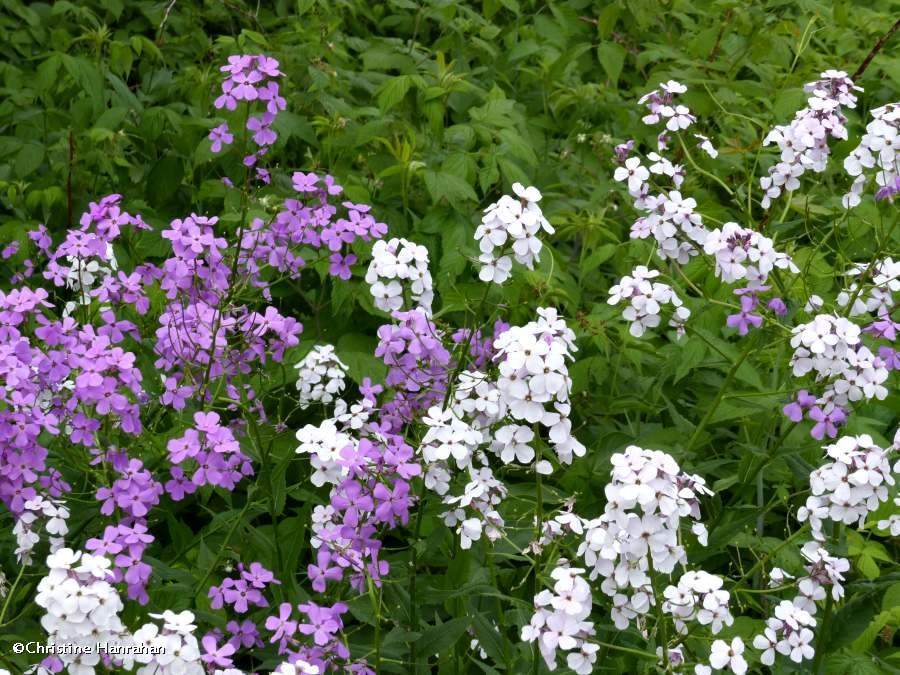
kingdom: Plantae
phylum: Tracheophyta
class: Magnoliopsida
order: Brassicales
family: Brassicaceae
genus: Hesperis
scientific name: Hesperis matronalis
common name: Dame's-violet
